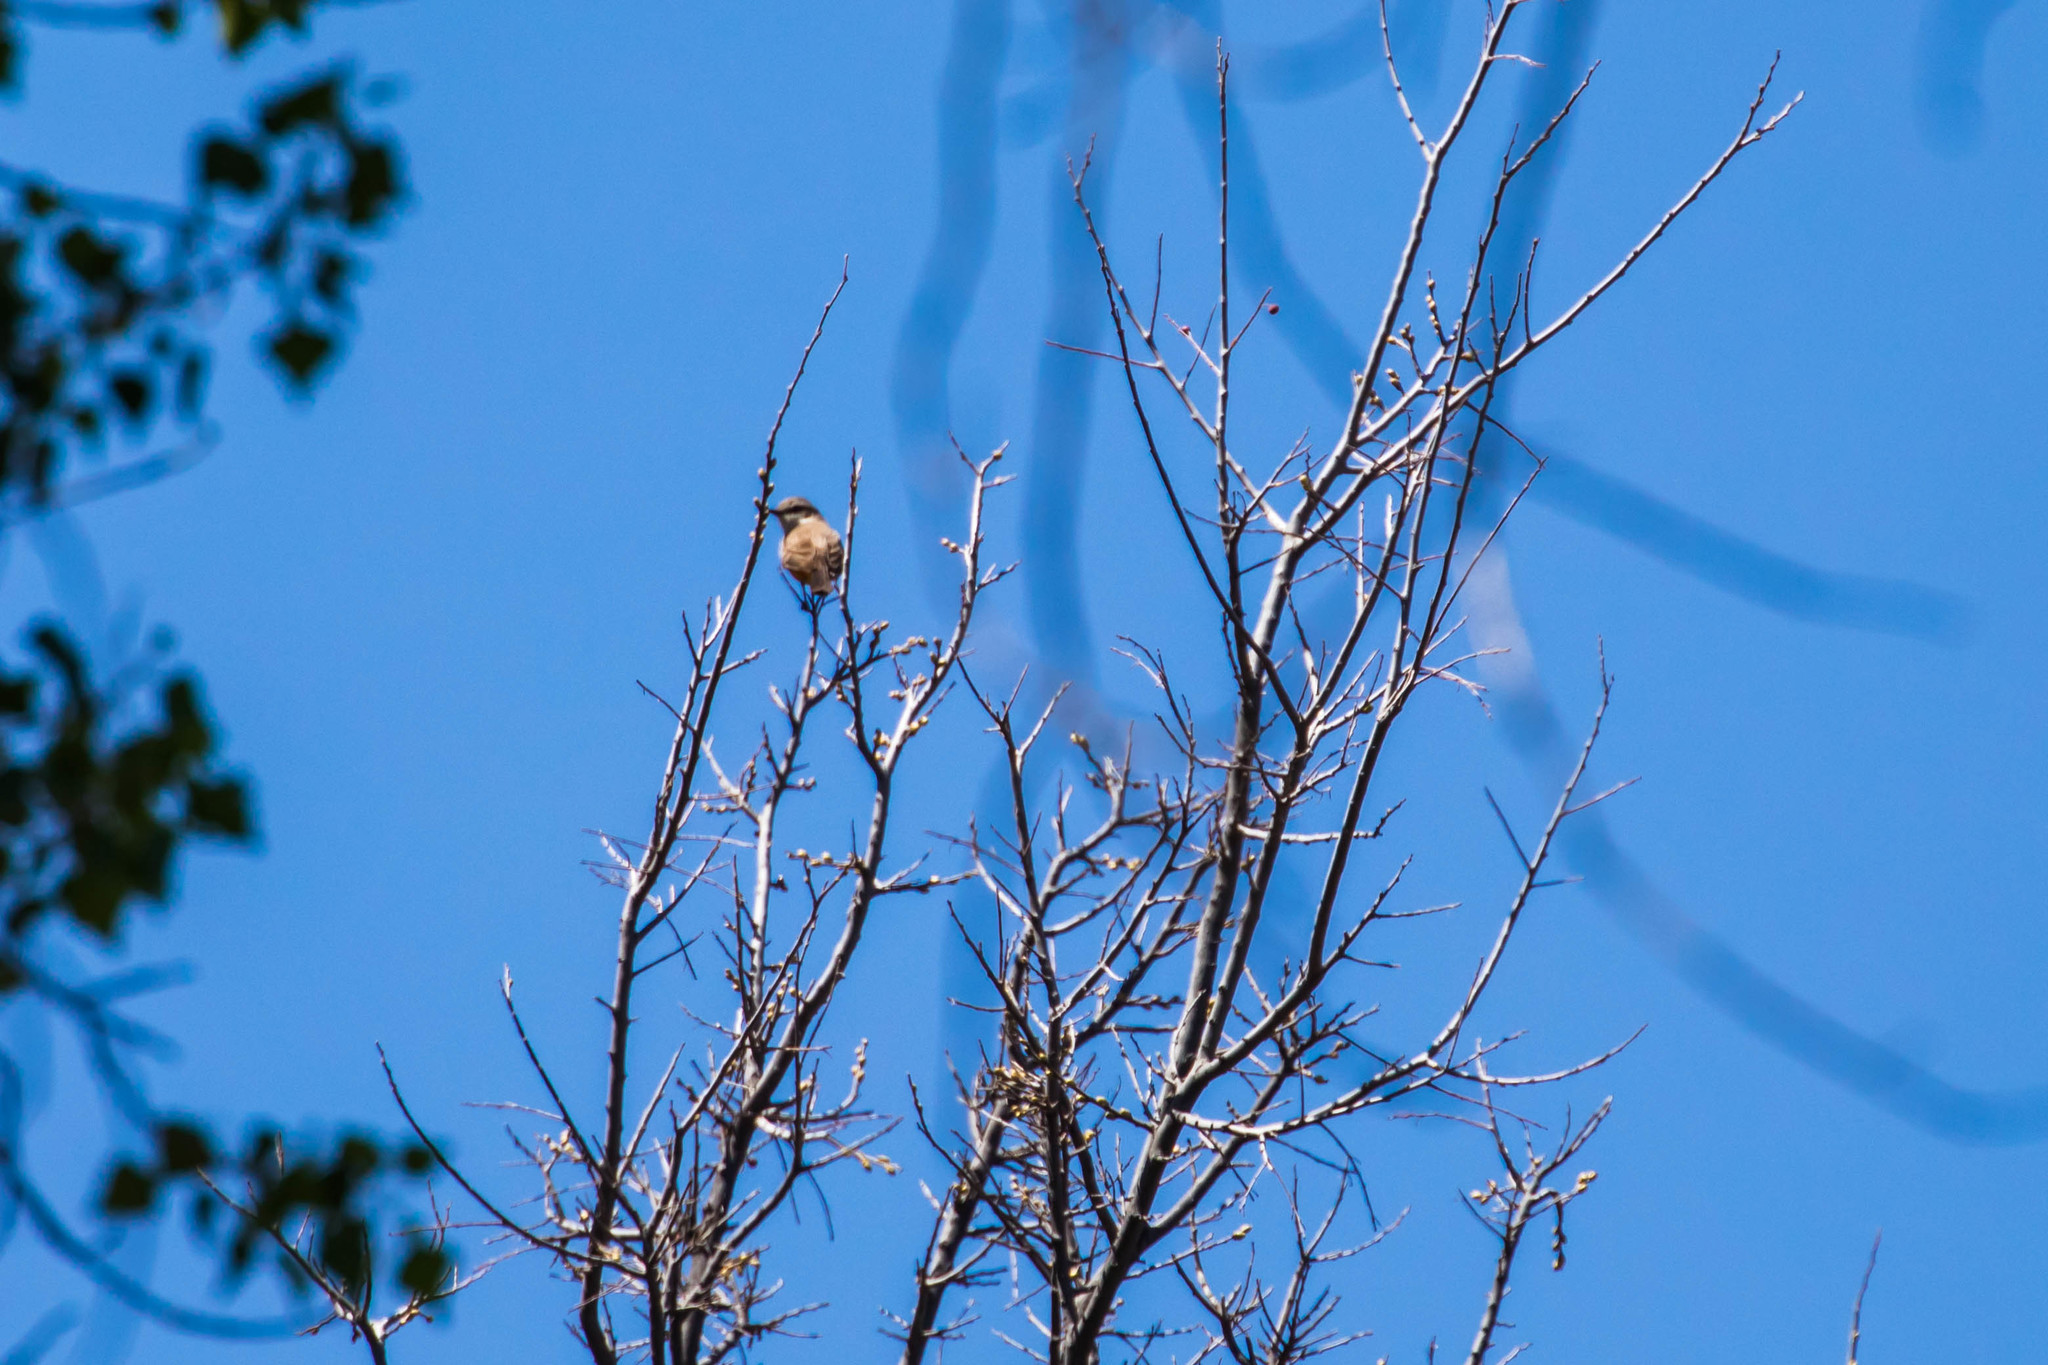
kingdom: Animalia
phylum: Chordata
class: Aves
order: Passeriformes
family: Tyrannidae
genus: Pyrocephalus
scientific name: Pyrocephalus rubinus
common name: Vermilion flycatcher
